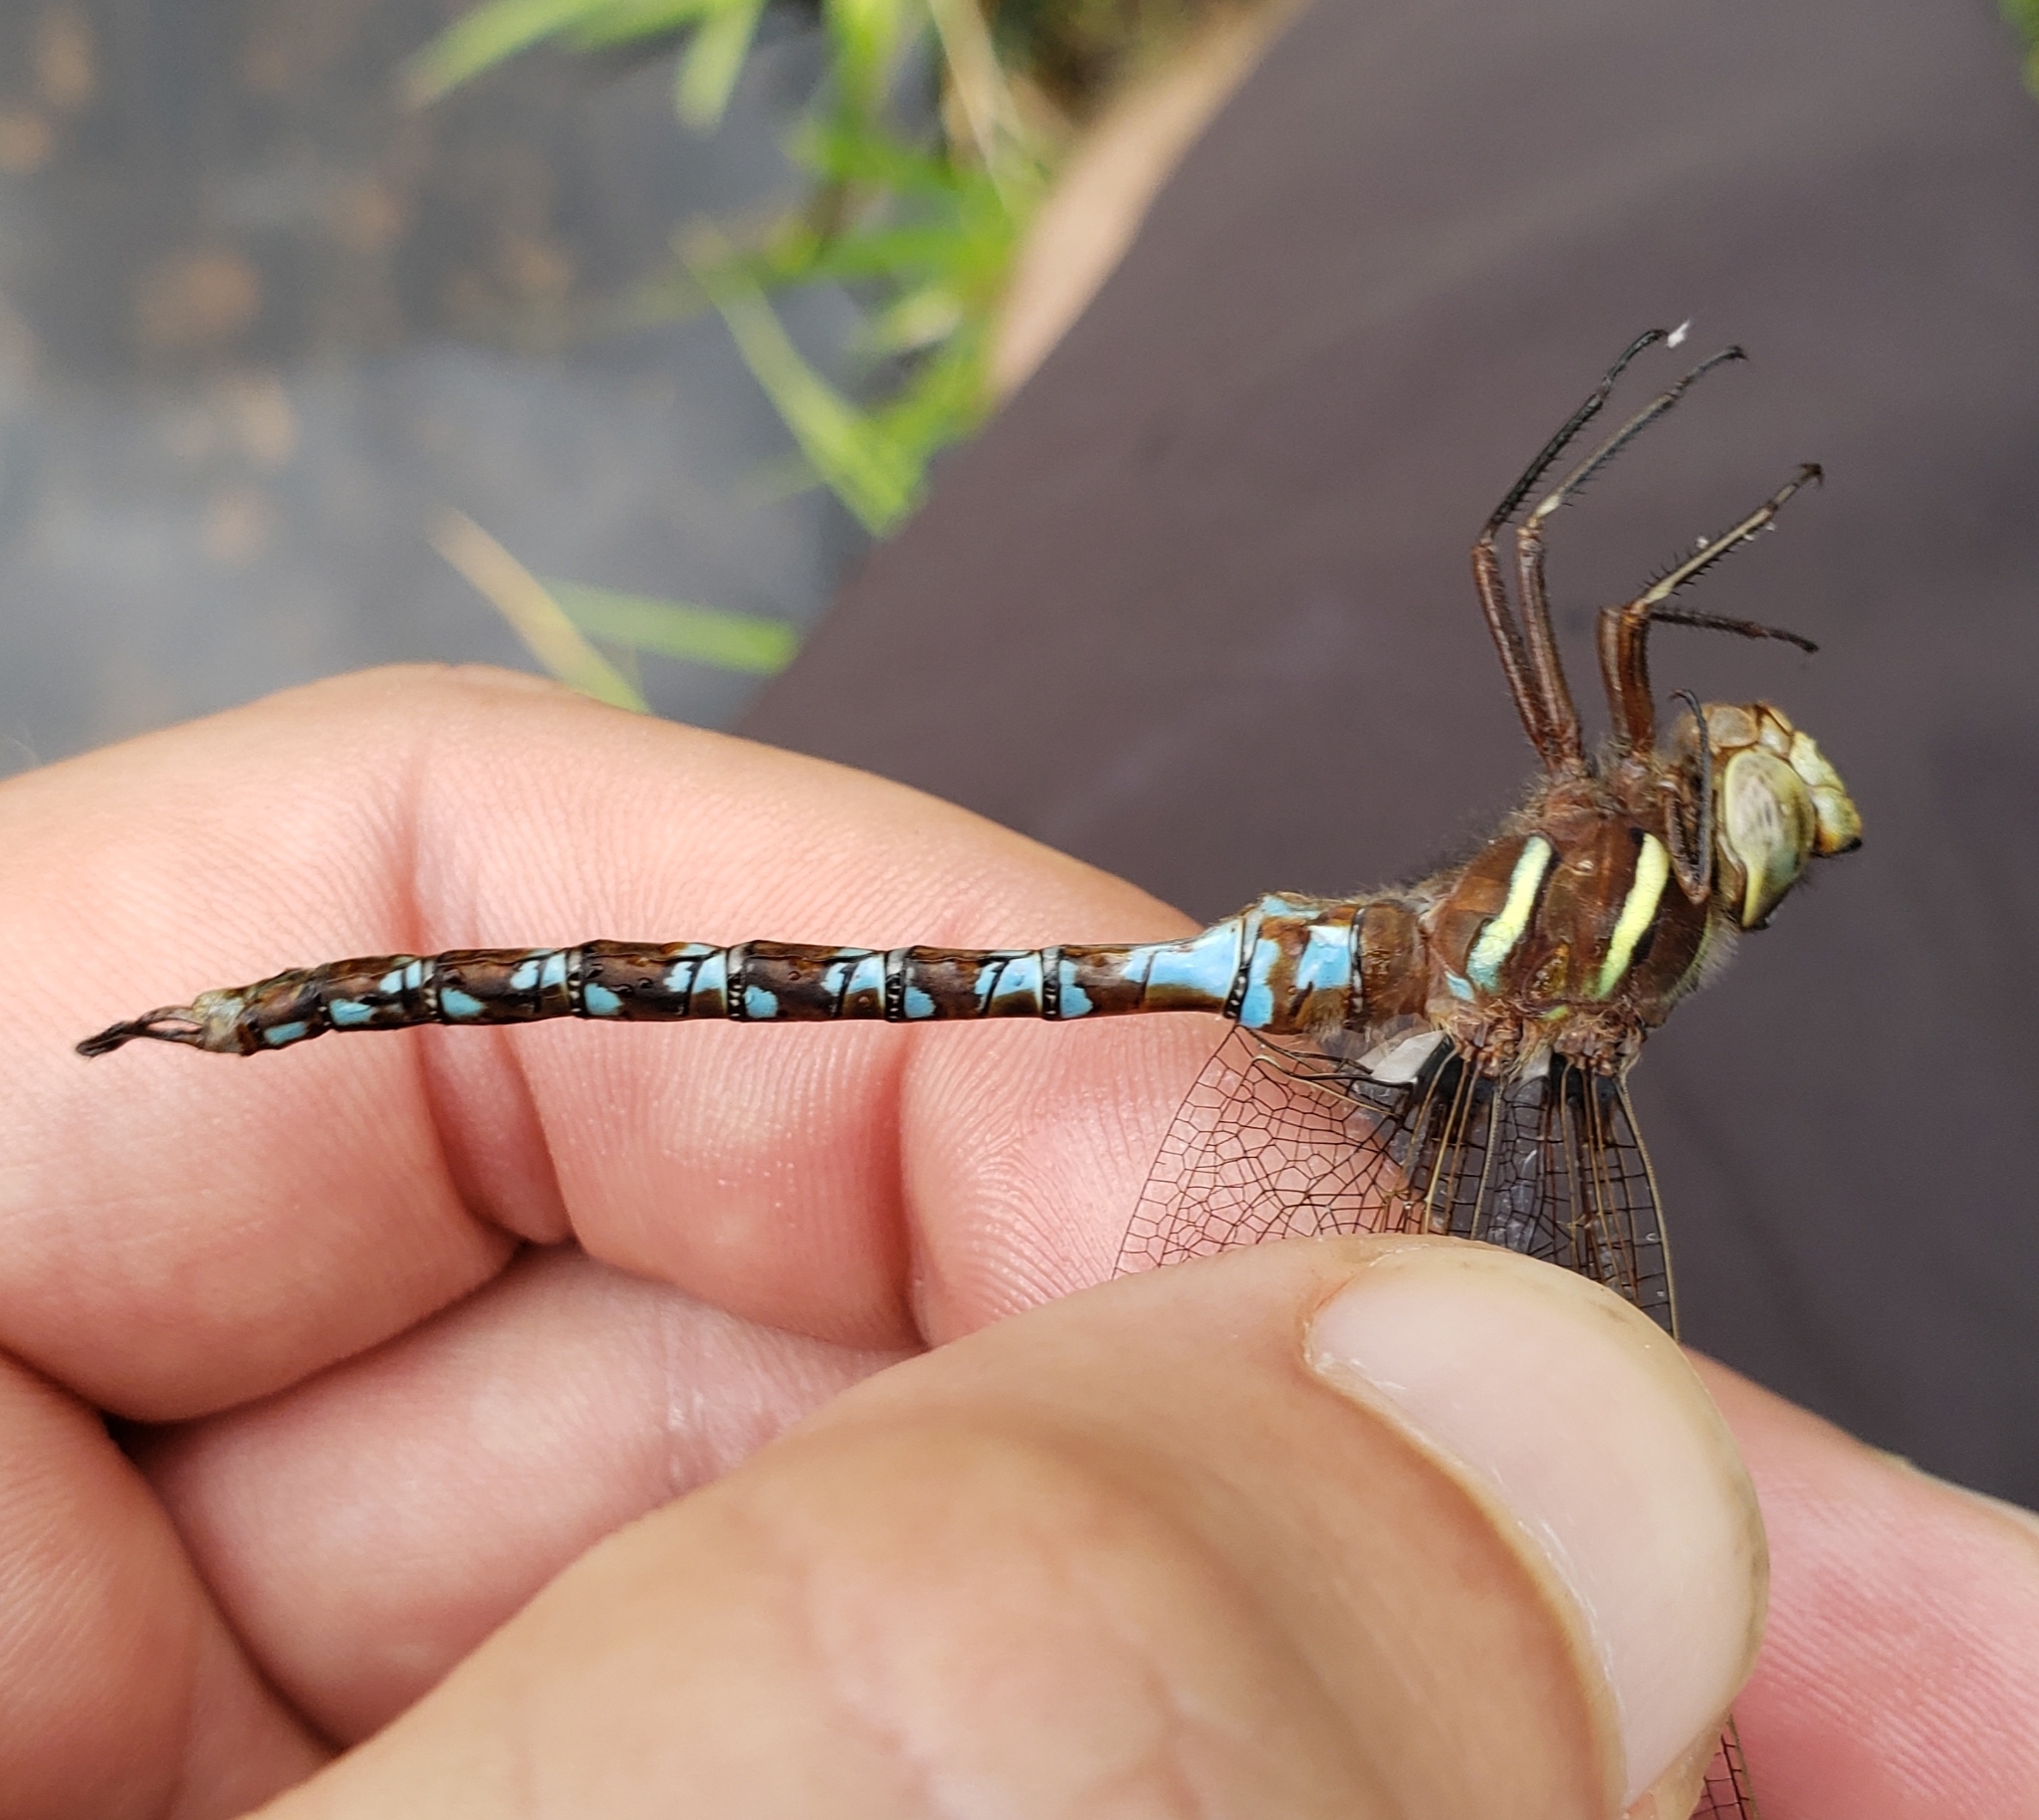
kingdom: Animalia
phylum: Arthropoda
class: Insecta
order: Odonata
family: Aeshnidae
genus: Basiaeschna
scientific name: Basiaeschna janata
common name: Springtime darner
